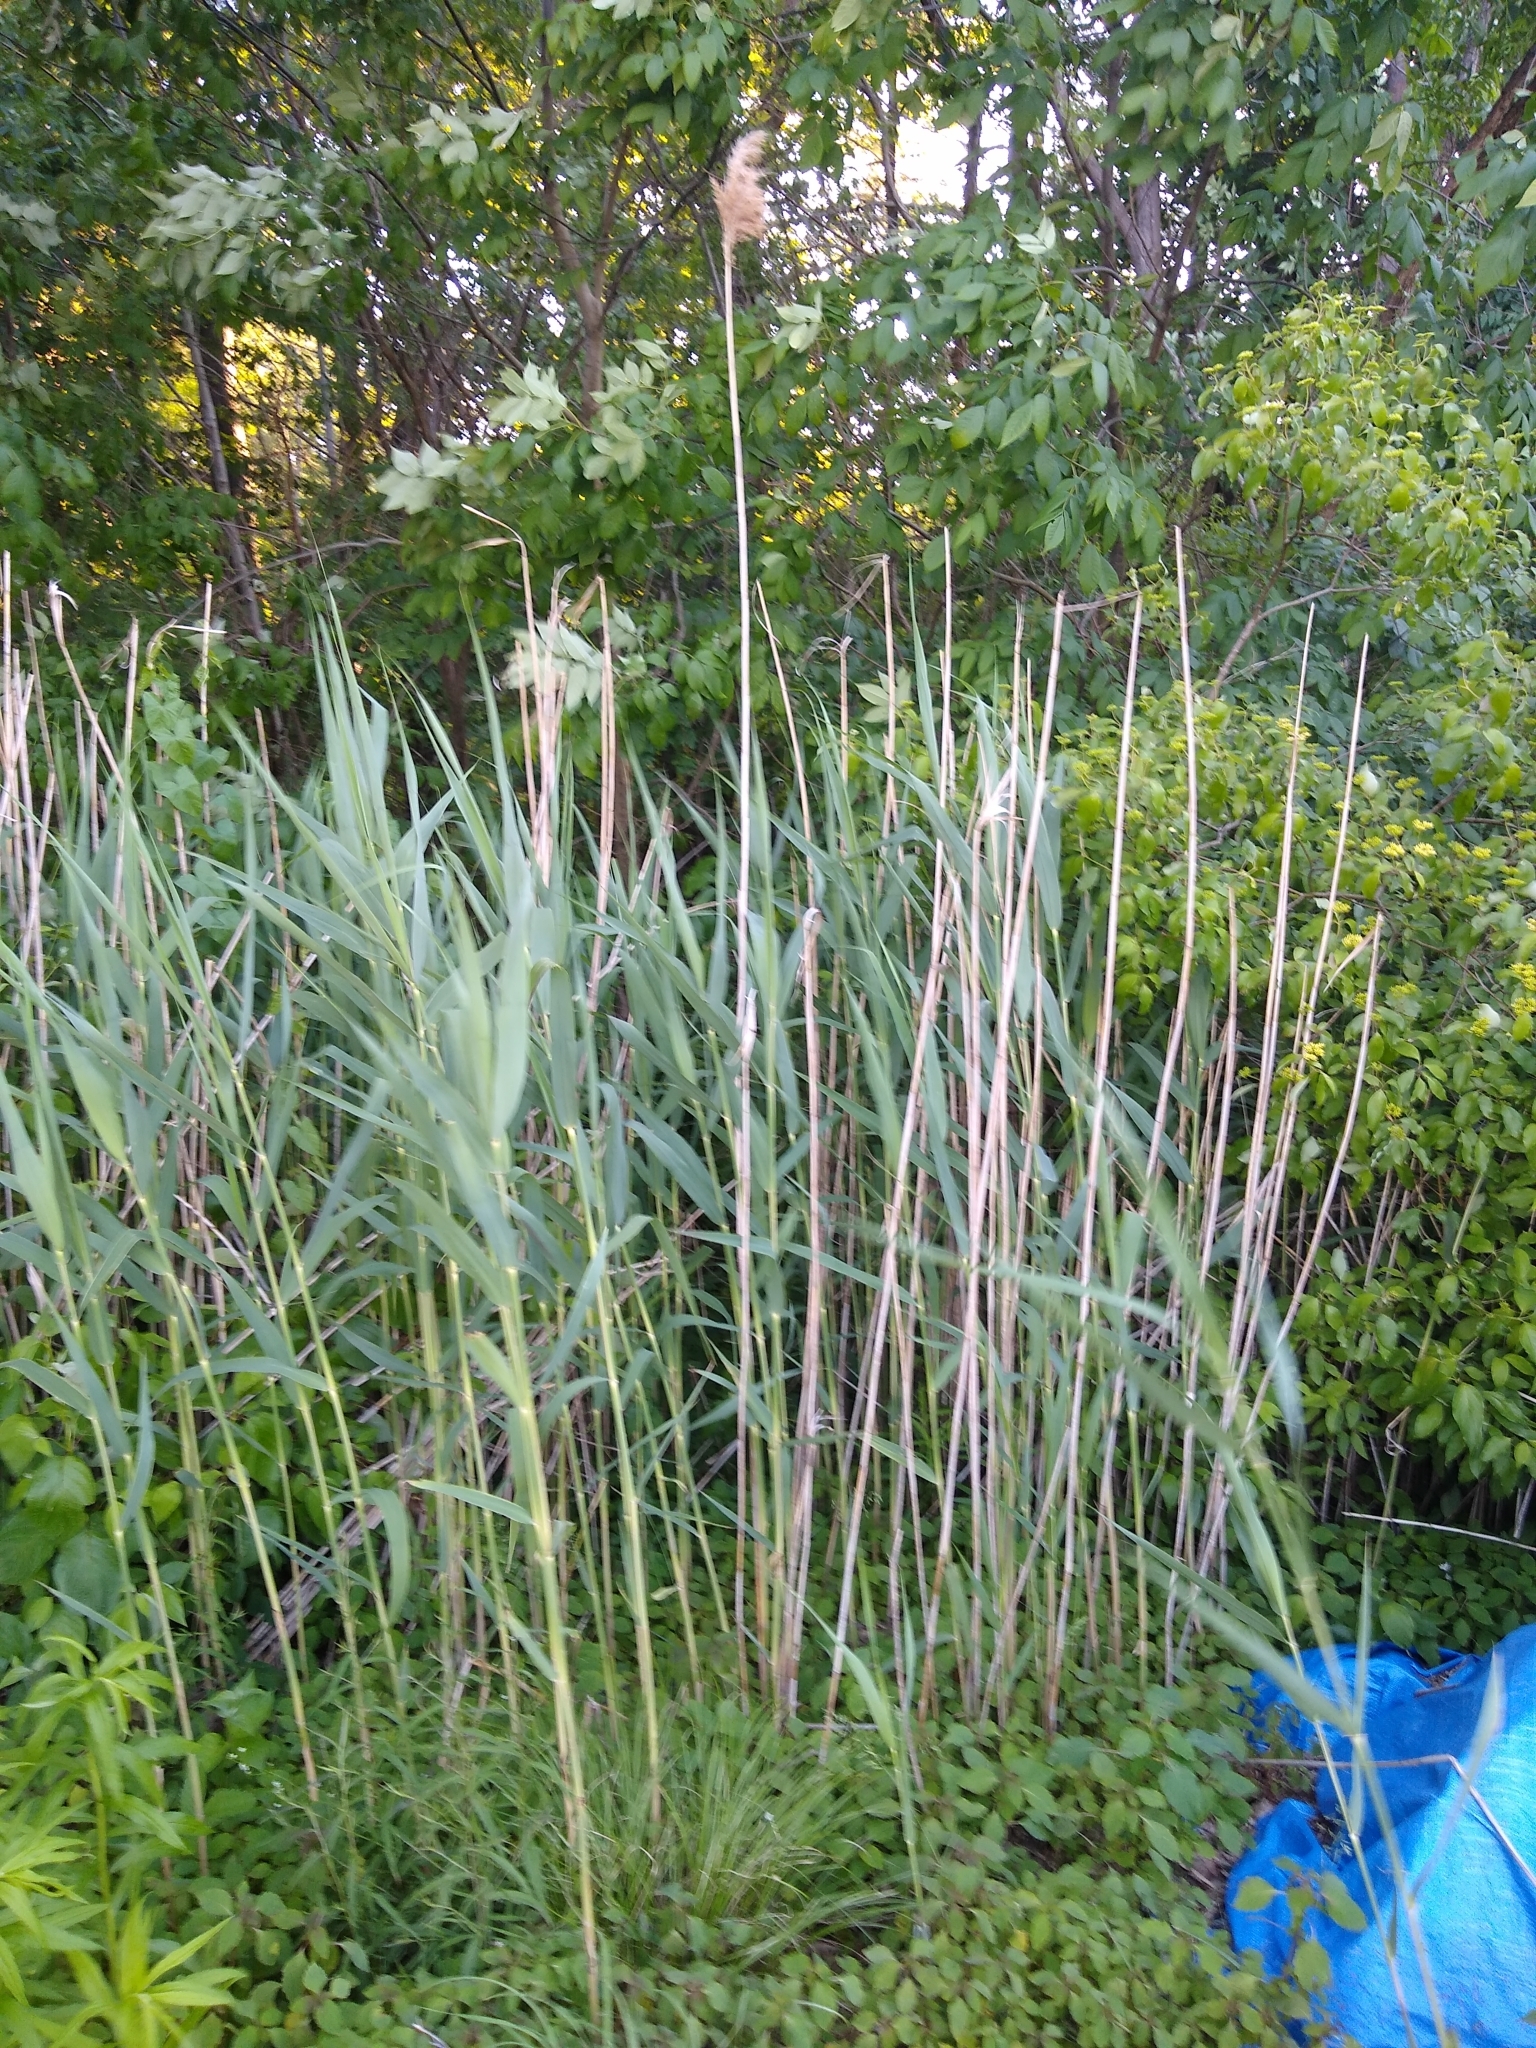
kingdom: Plantae
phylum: Tracheophyta
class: Liliopsida
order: Poales
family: Poaceae
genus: Phragmites
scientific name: Phragmites australis
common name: Common reed
